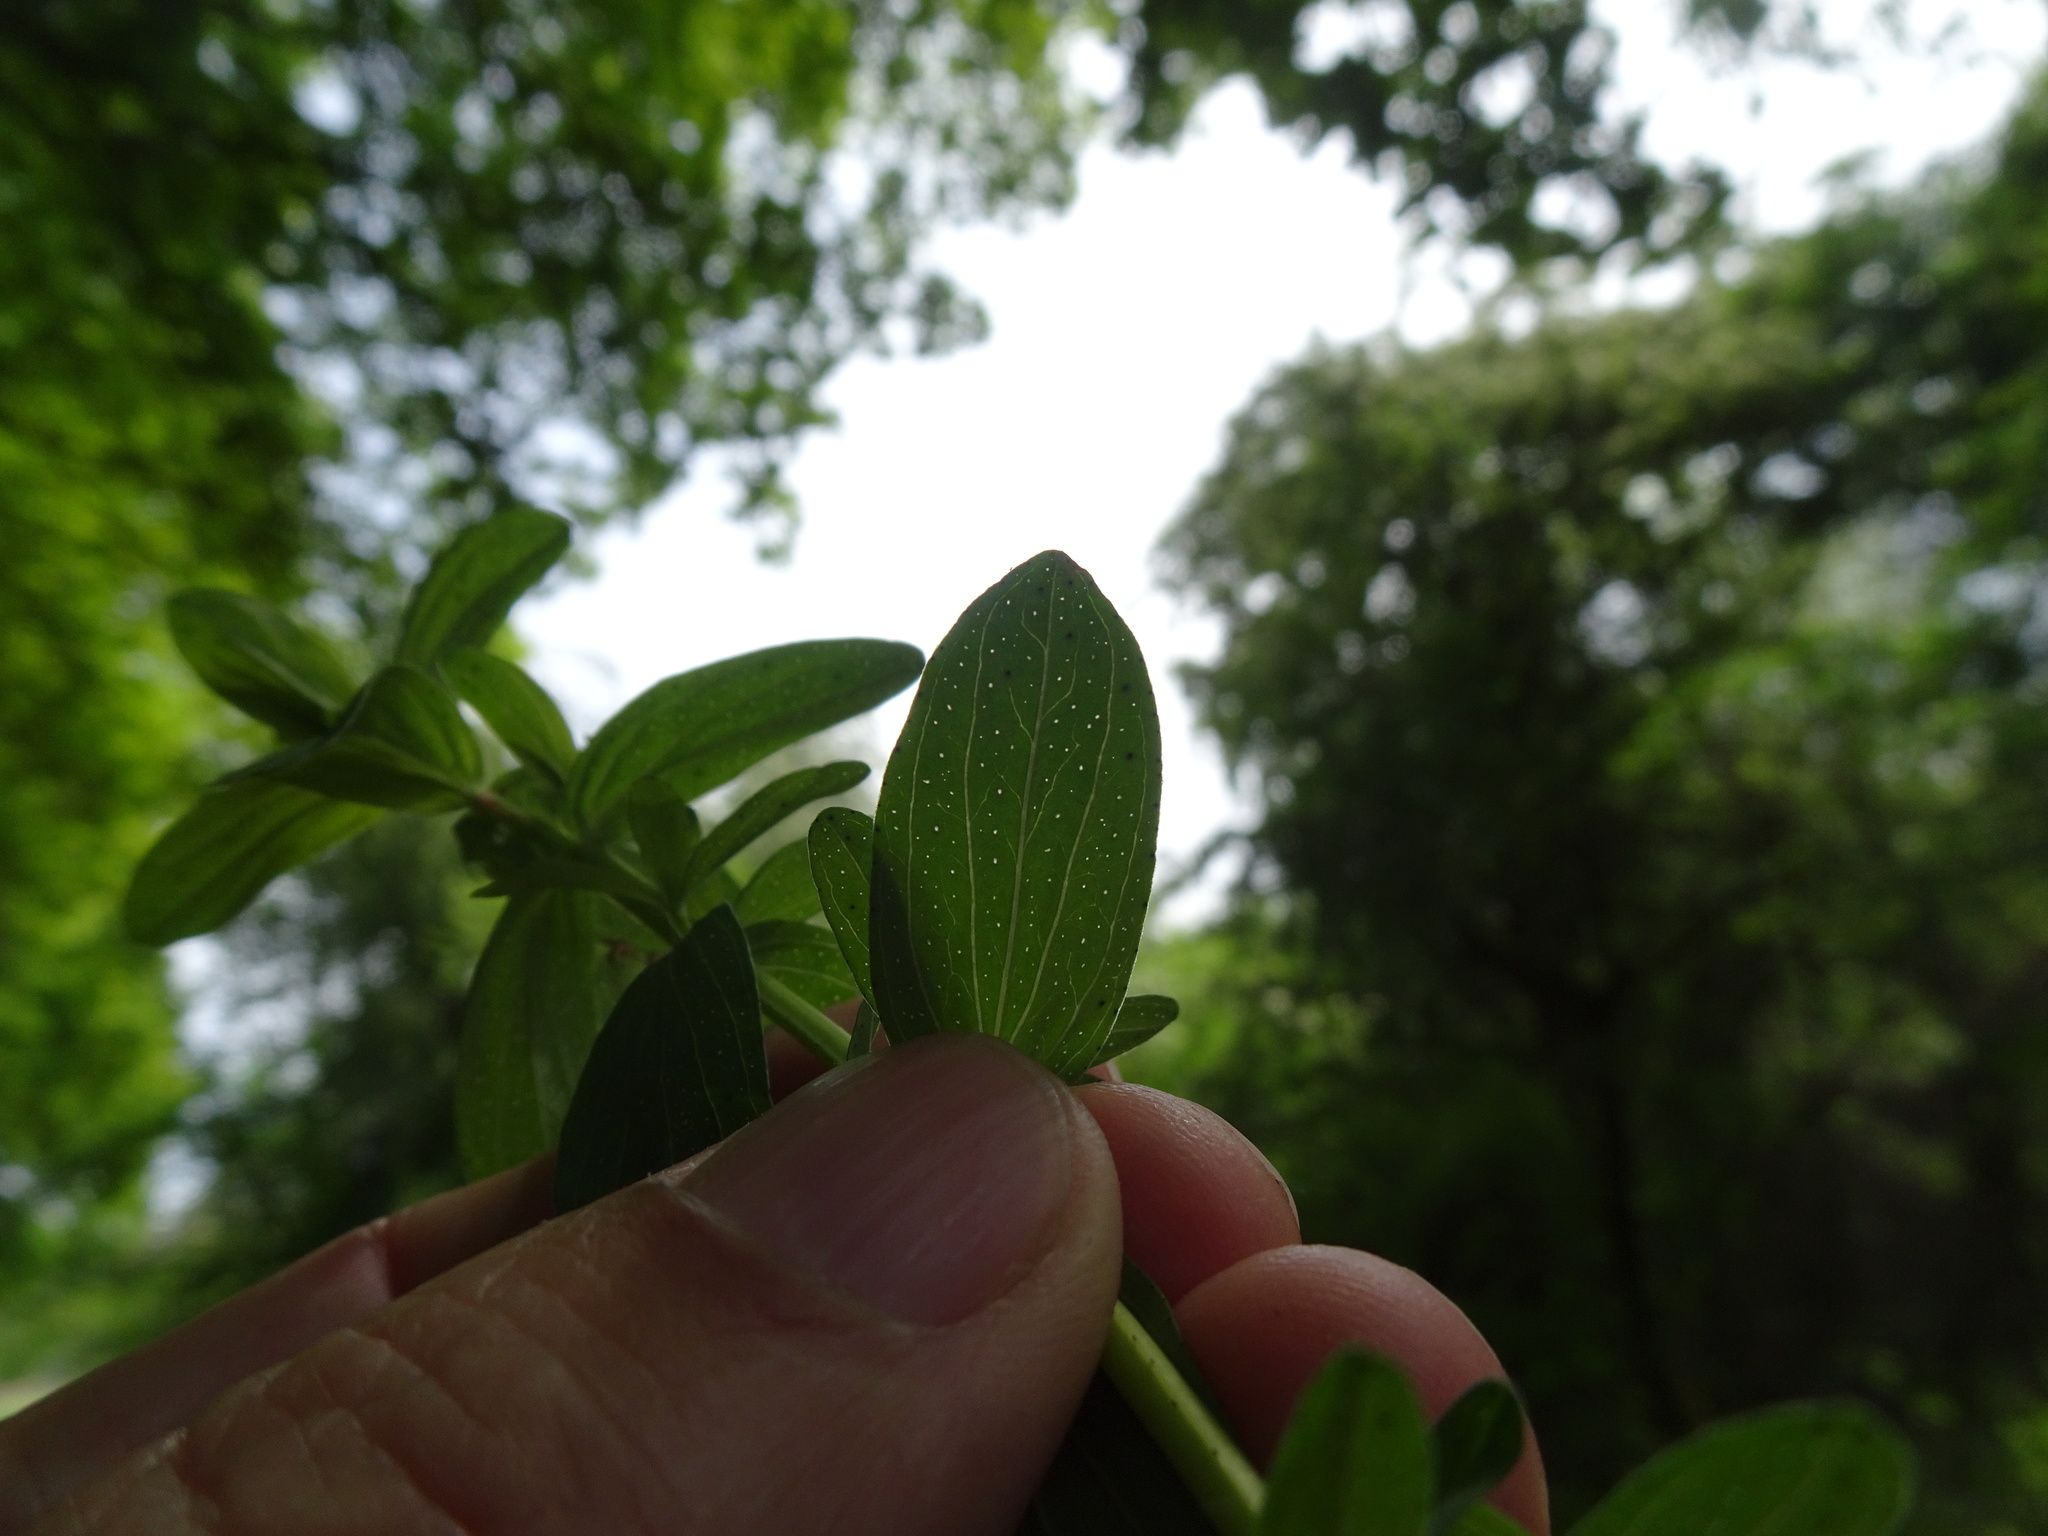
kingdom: Plantae
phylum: Tracheophyta
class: Magnoliopsida
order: Malpighiales
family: Hypericaceae
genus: Hypericum
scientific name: Hypericum perforatum
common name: Common st. johnswort
